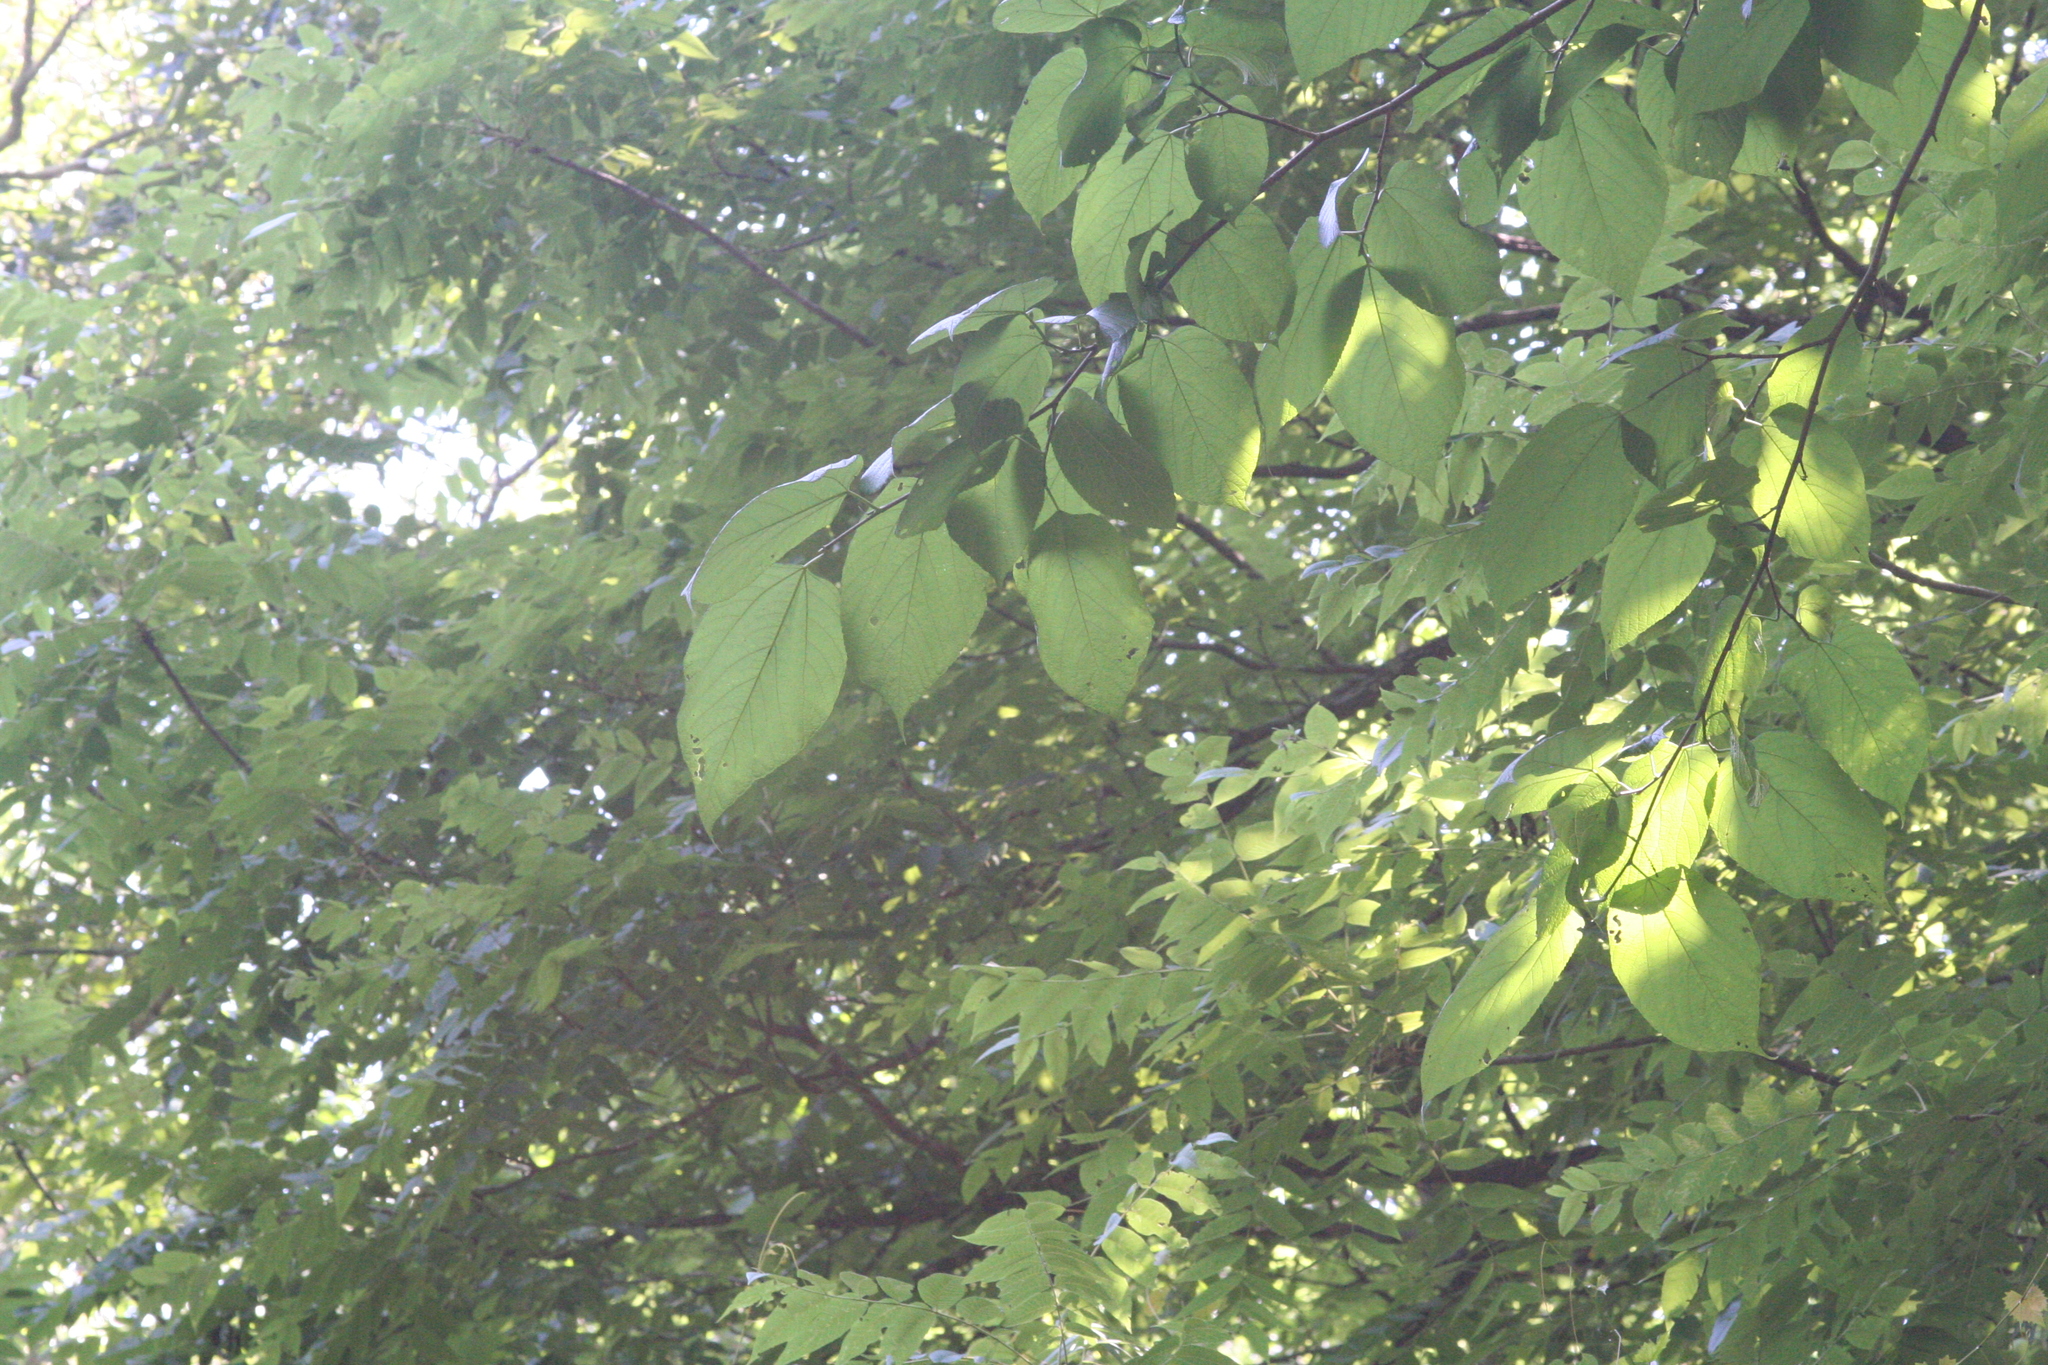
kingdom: Plantae
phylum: Tracheophyta
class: Magnoliopsida
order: Rosales
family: Moraceae
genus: Morus
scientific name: Morus rubra
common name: Red mulberry
